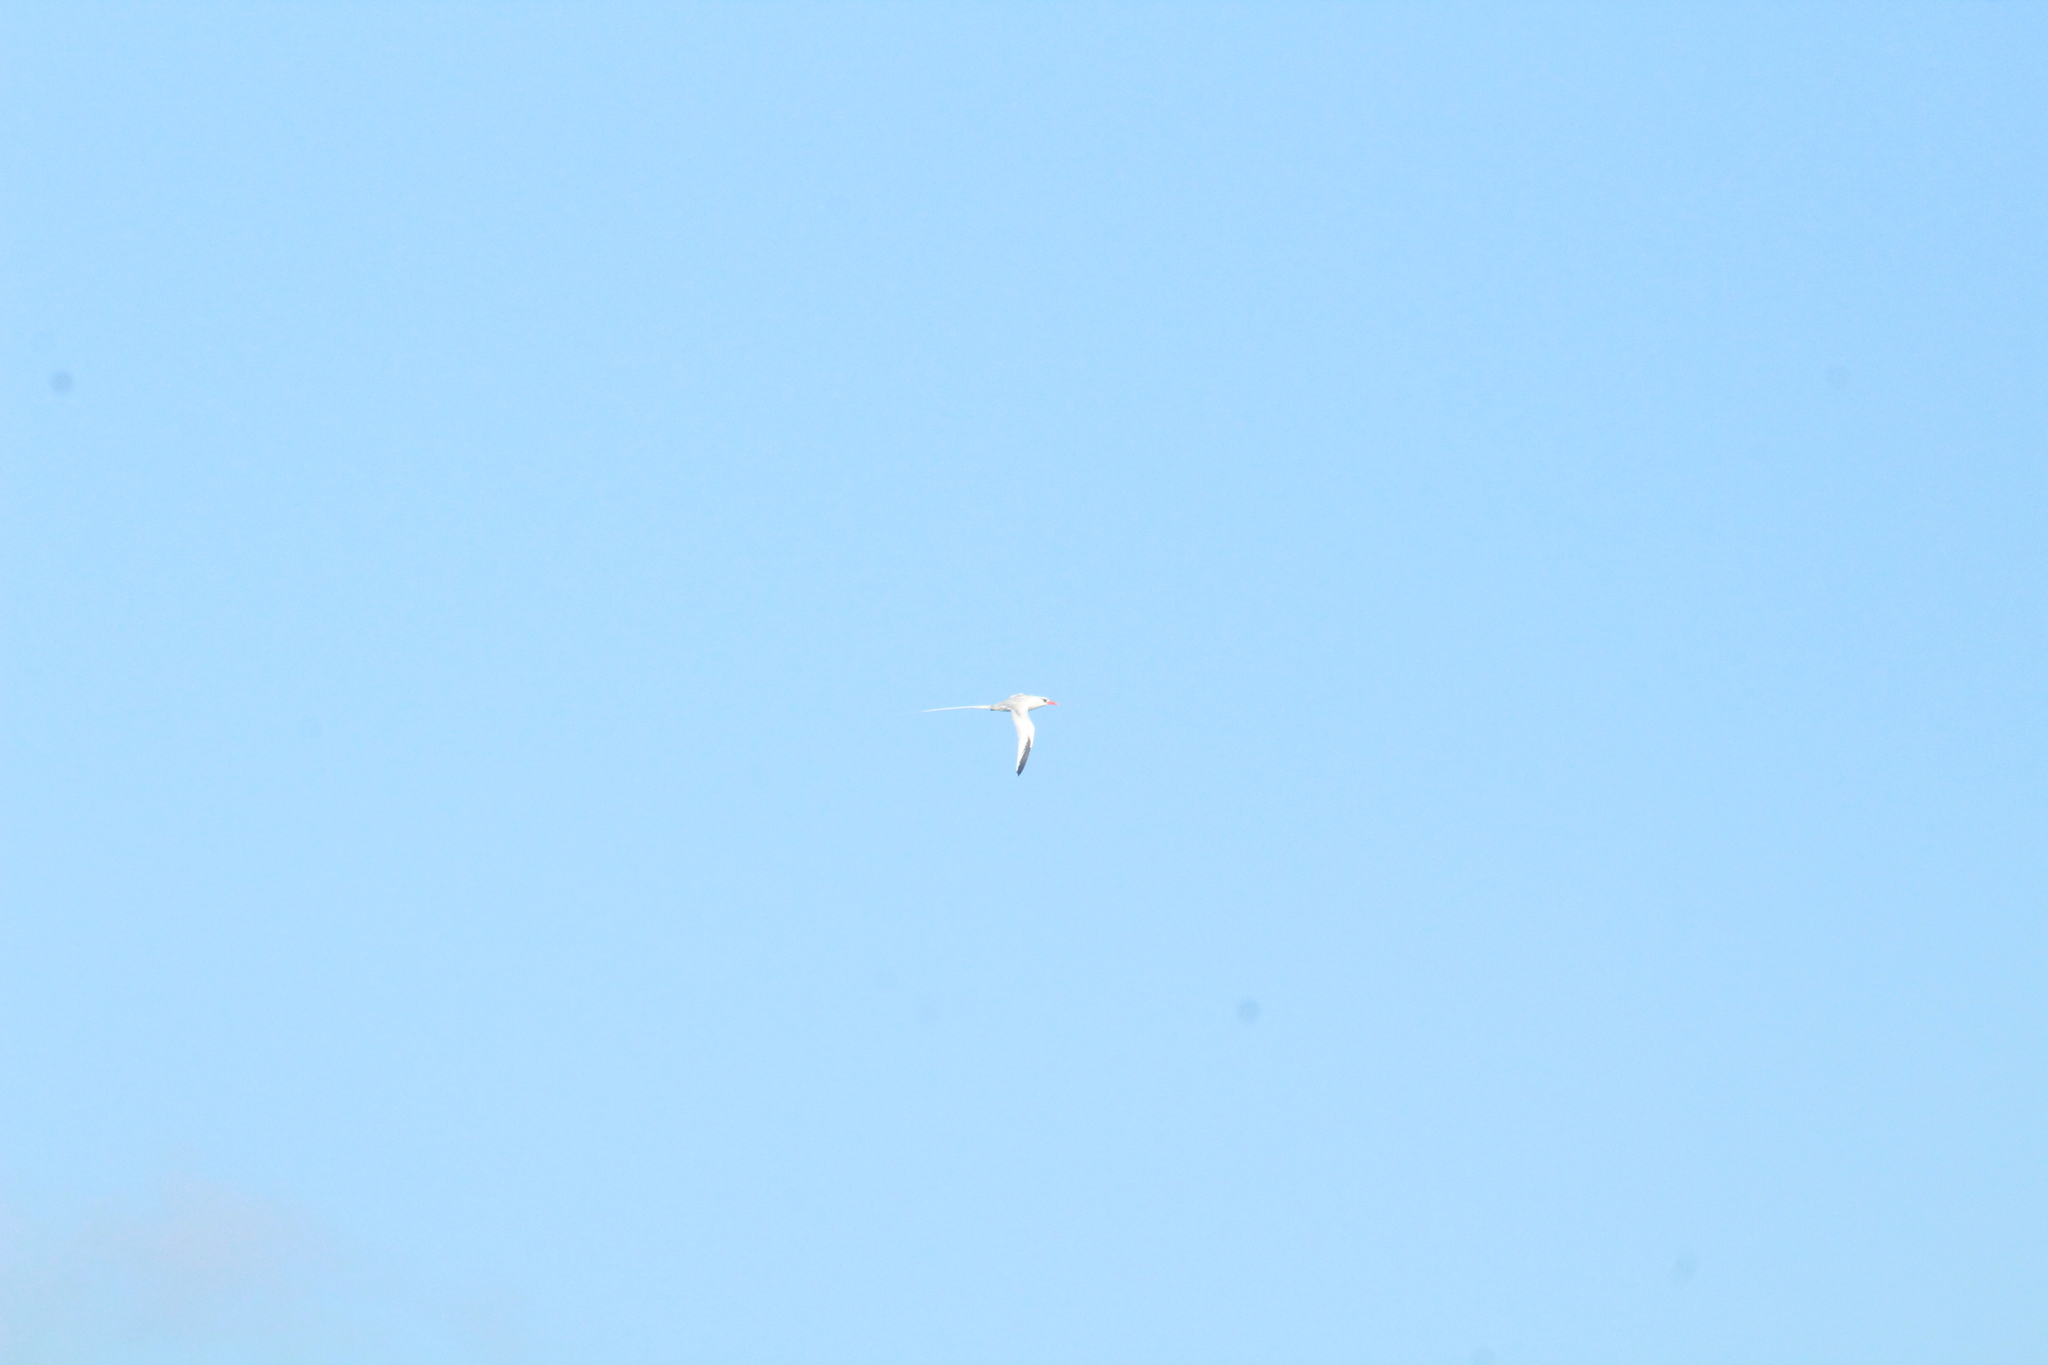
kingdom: Animalia
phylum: Chordata
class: Aves
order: Phaethontiformes
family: Phaethontidae
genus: Phaethon
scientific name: Phaethon aethereus
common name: Red-billed tropicbird
